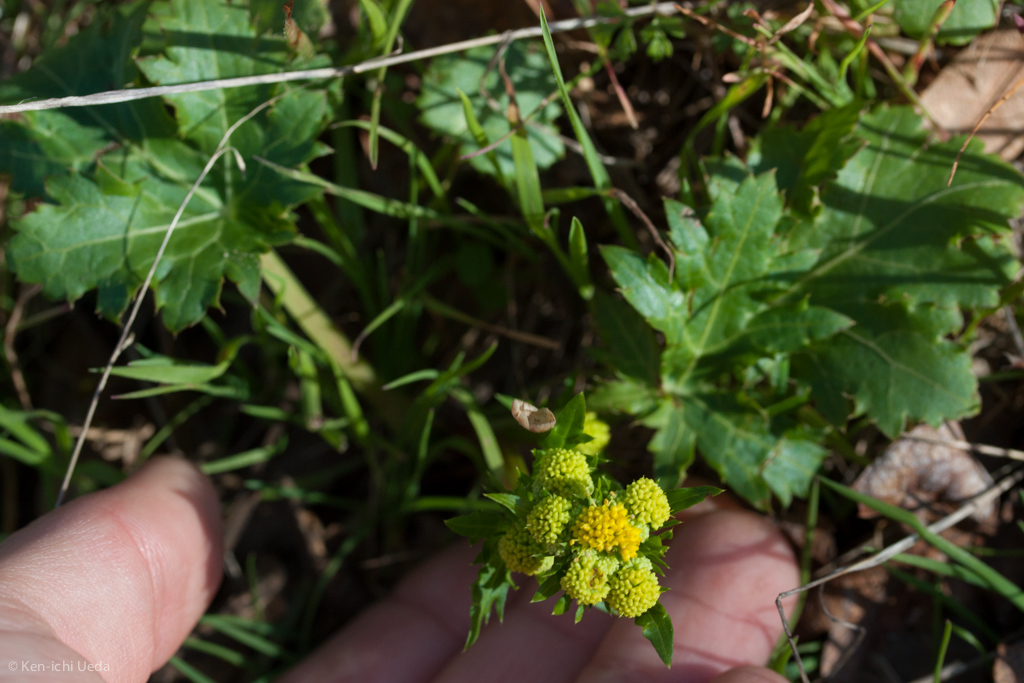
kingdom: Plantae
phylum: Tracheophyta
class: Magnoliopsida
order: Apiales
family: Apiaceae
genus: Sanicula
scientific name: Sanicula laciniata
